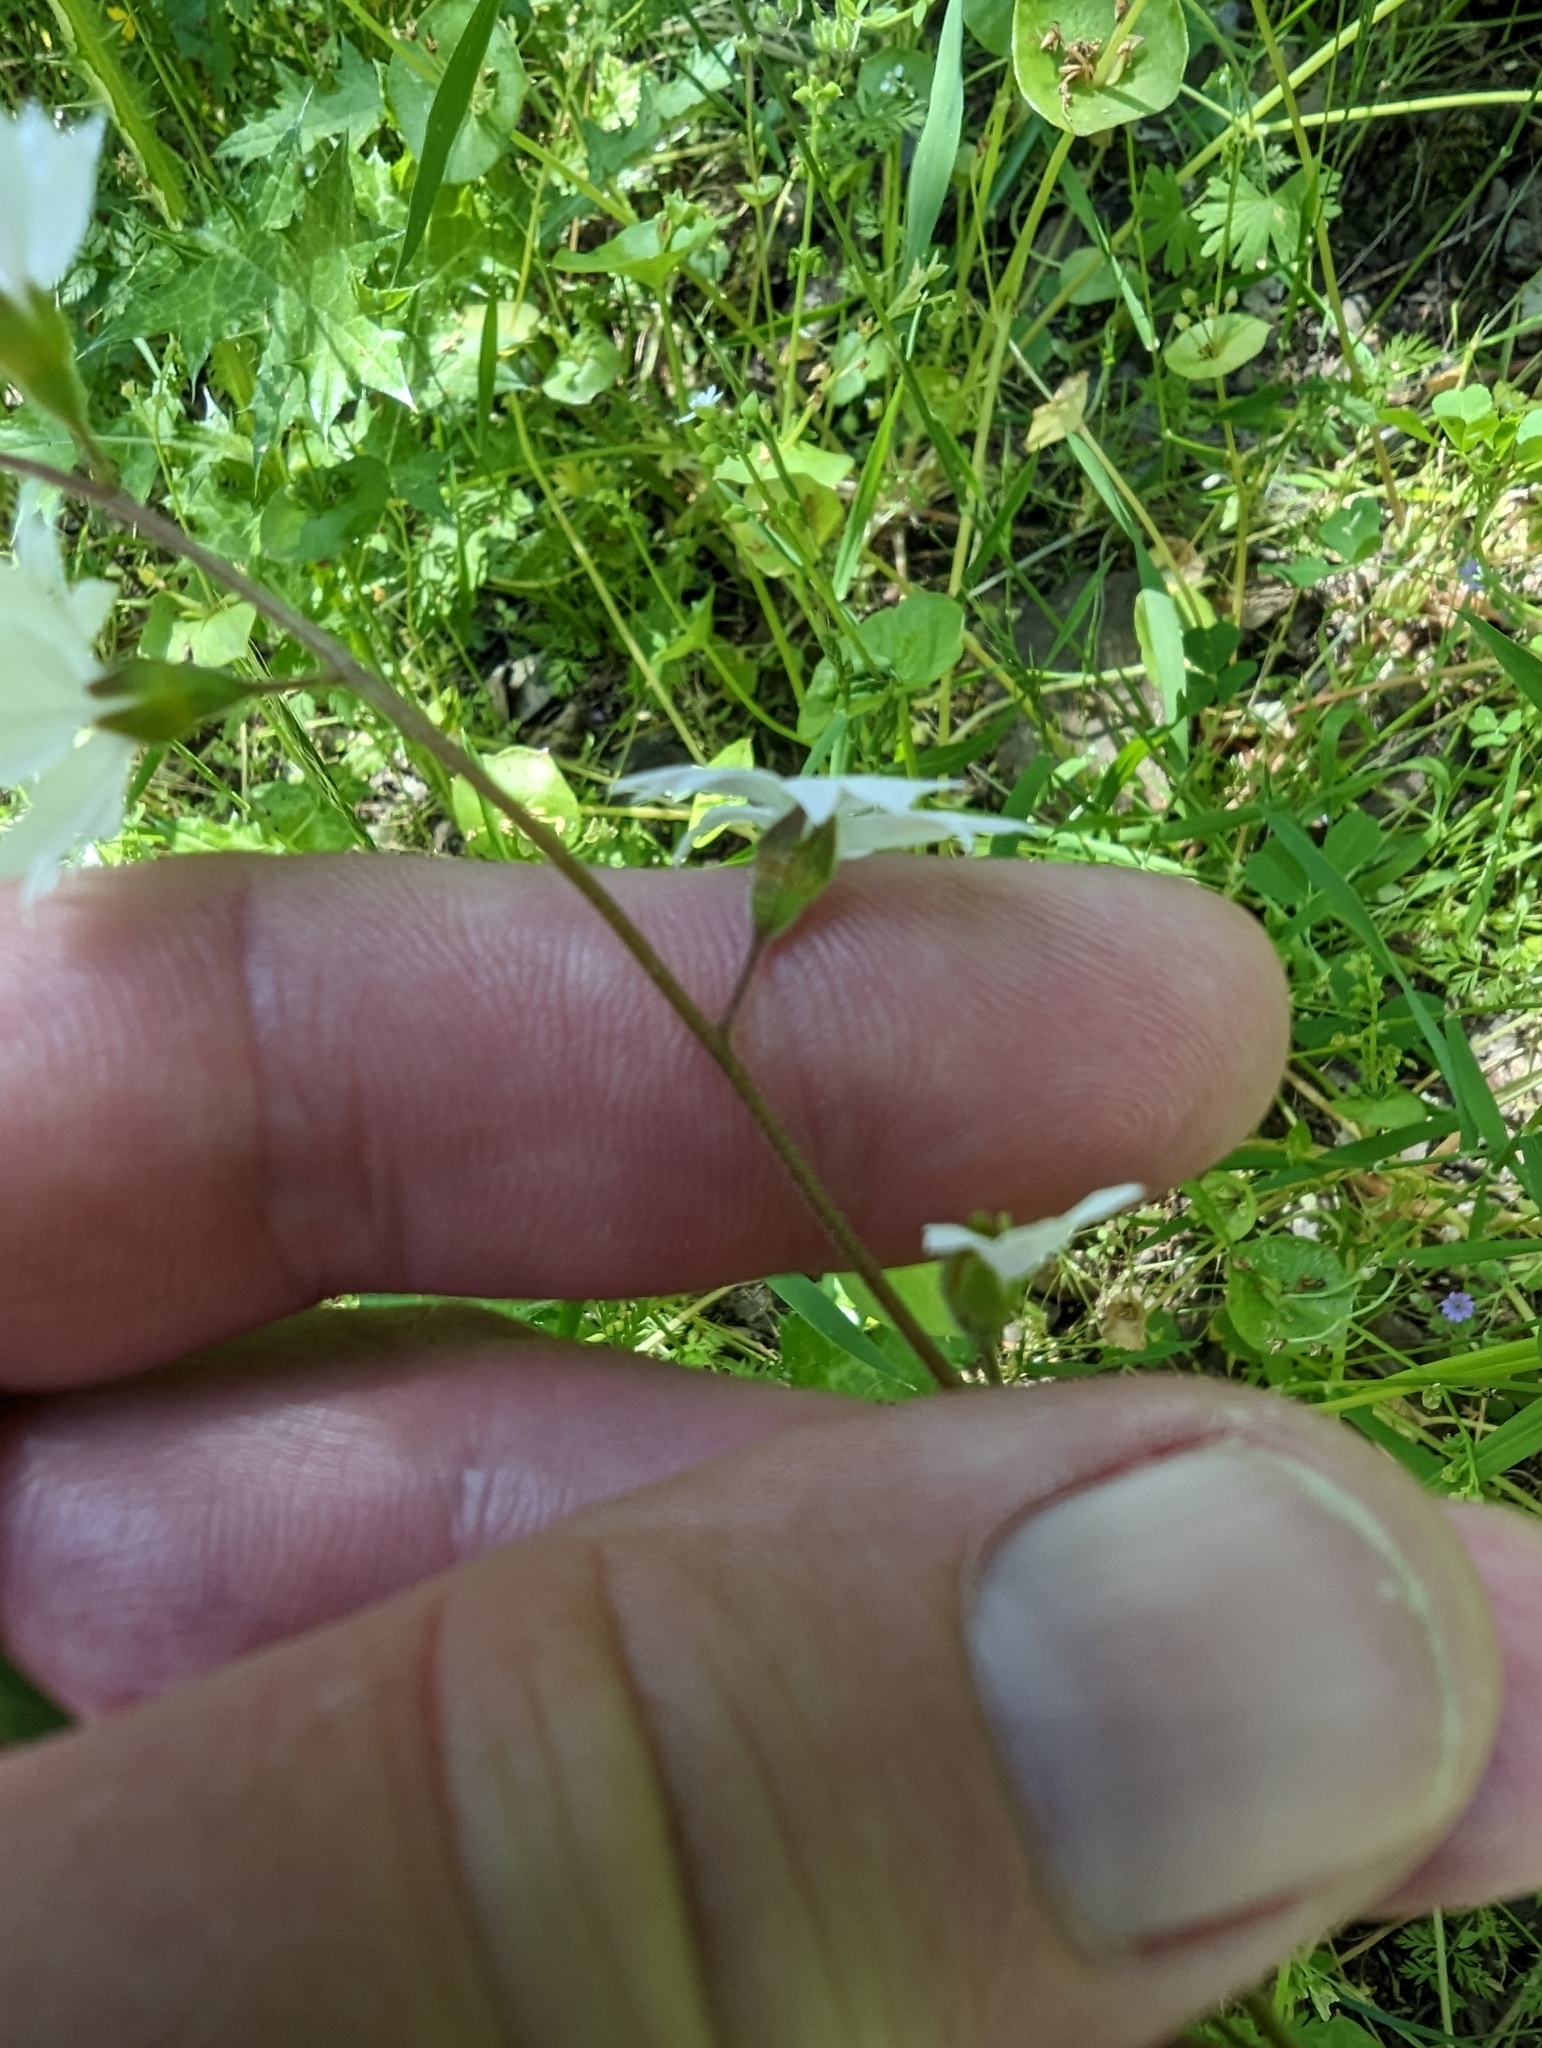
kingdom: Plantae
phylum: Tracheophyta
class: Magnoliopsida
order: Saxifragales
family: Saxifragaceae
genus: Lithophragma
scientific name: Lithophragma affine
